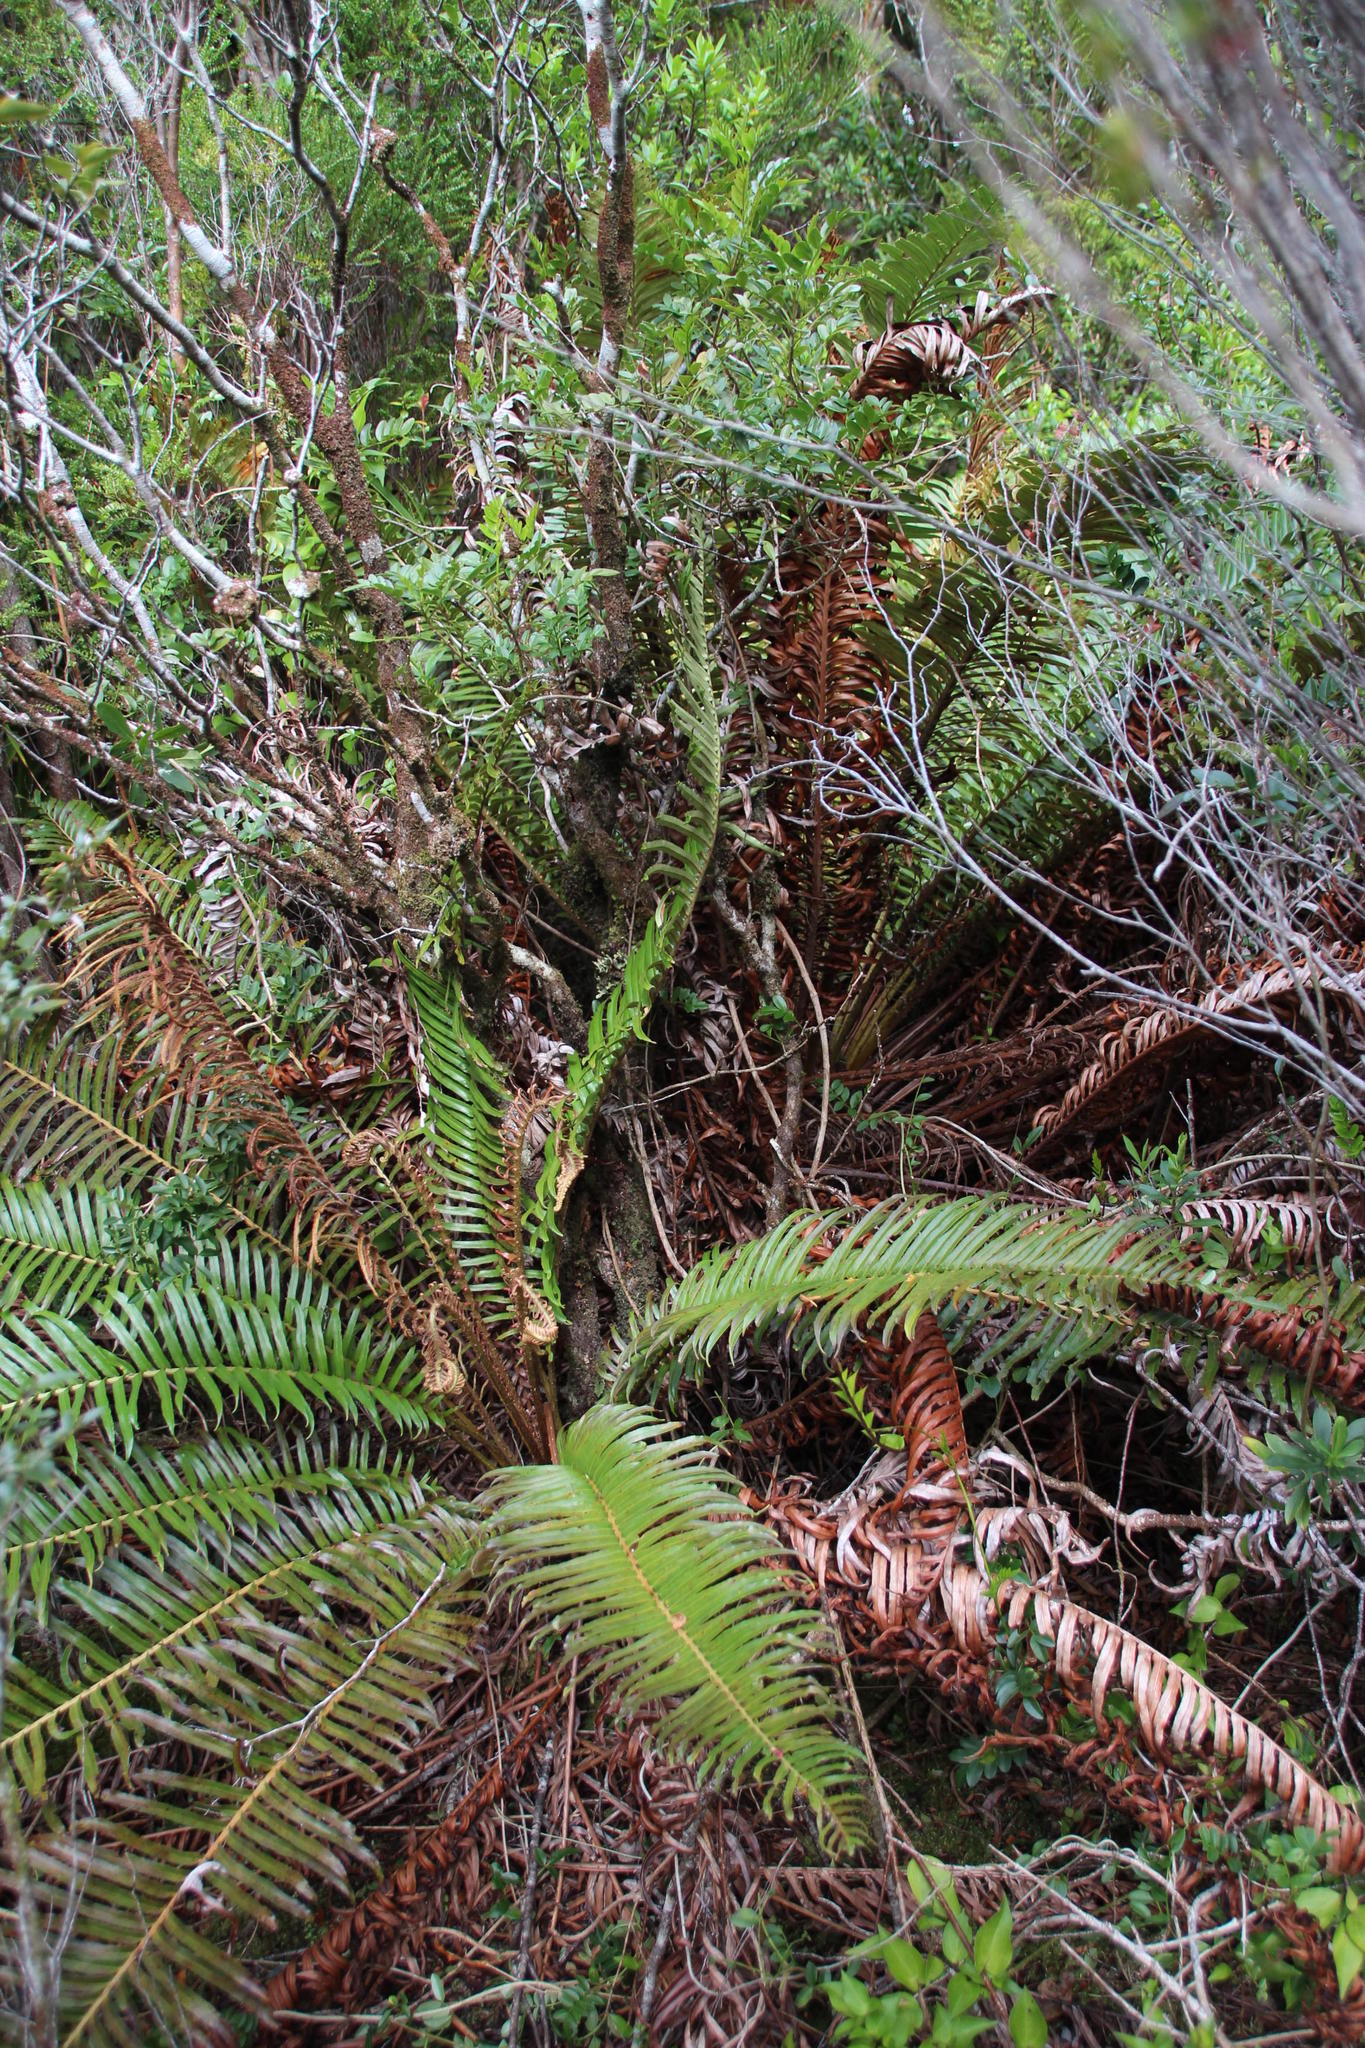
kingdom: Plantae
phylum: Tracheophyta
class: Polypodiopsida
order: Polypodiales
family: Blechnaceae
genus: Lomariocycas
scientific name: Lomariocycas magellanica
